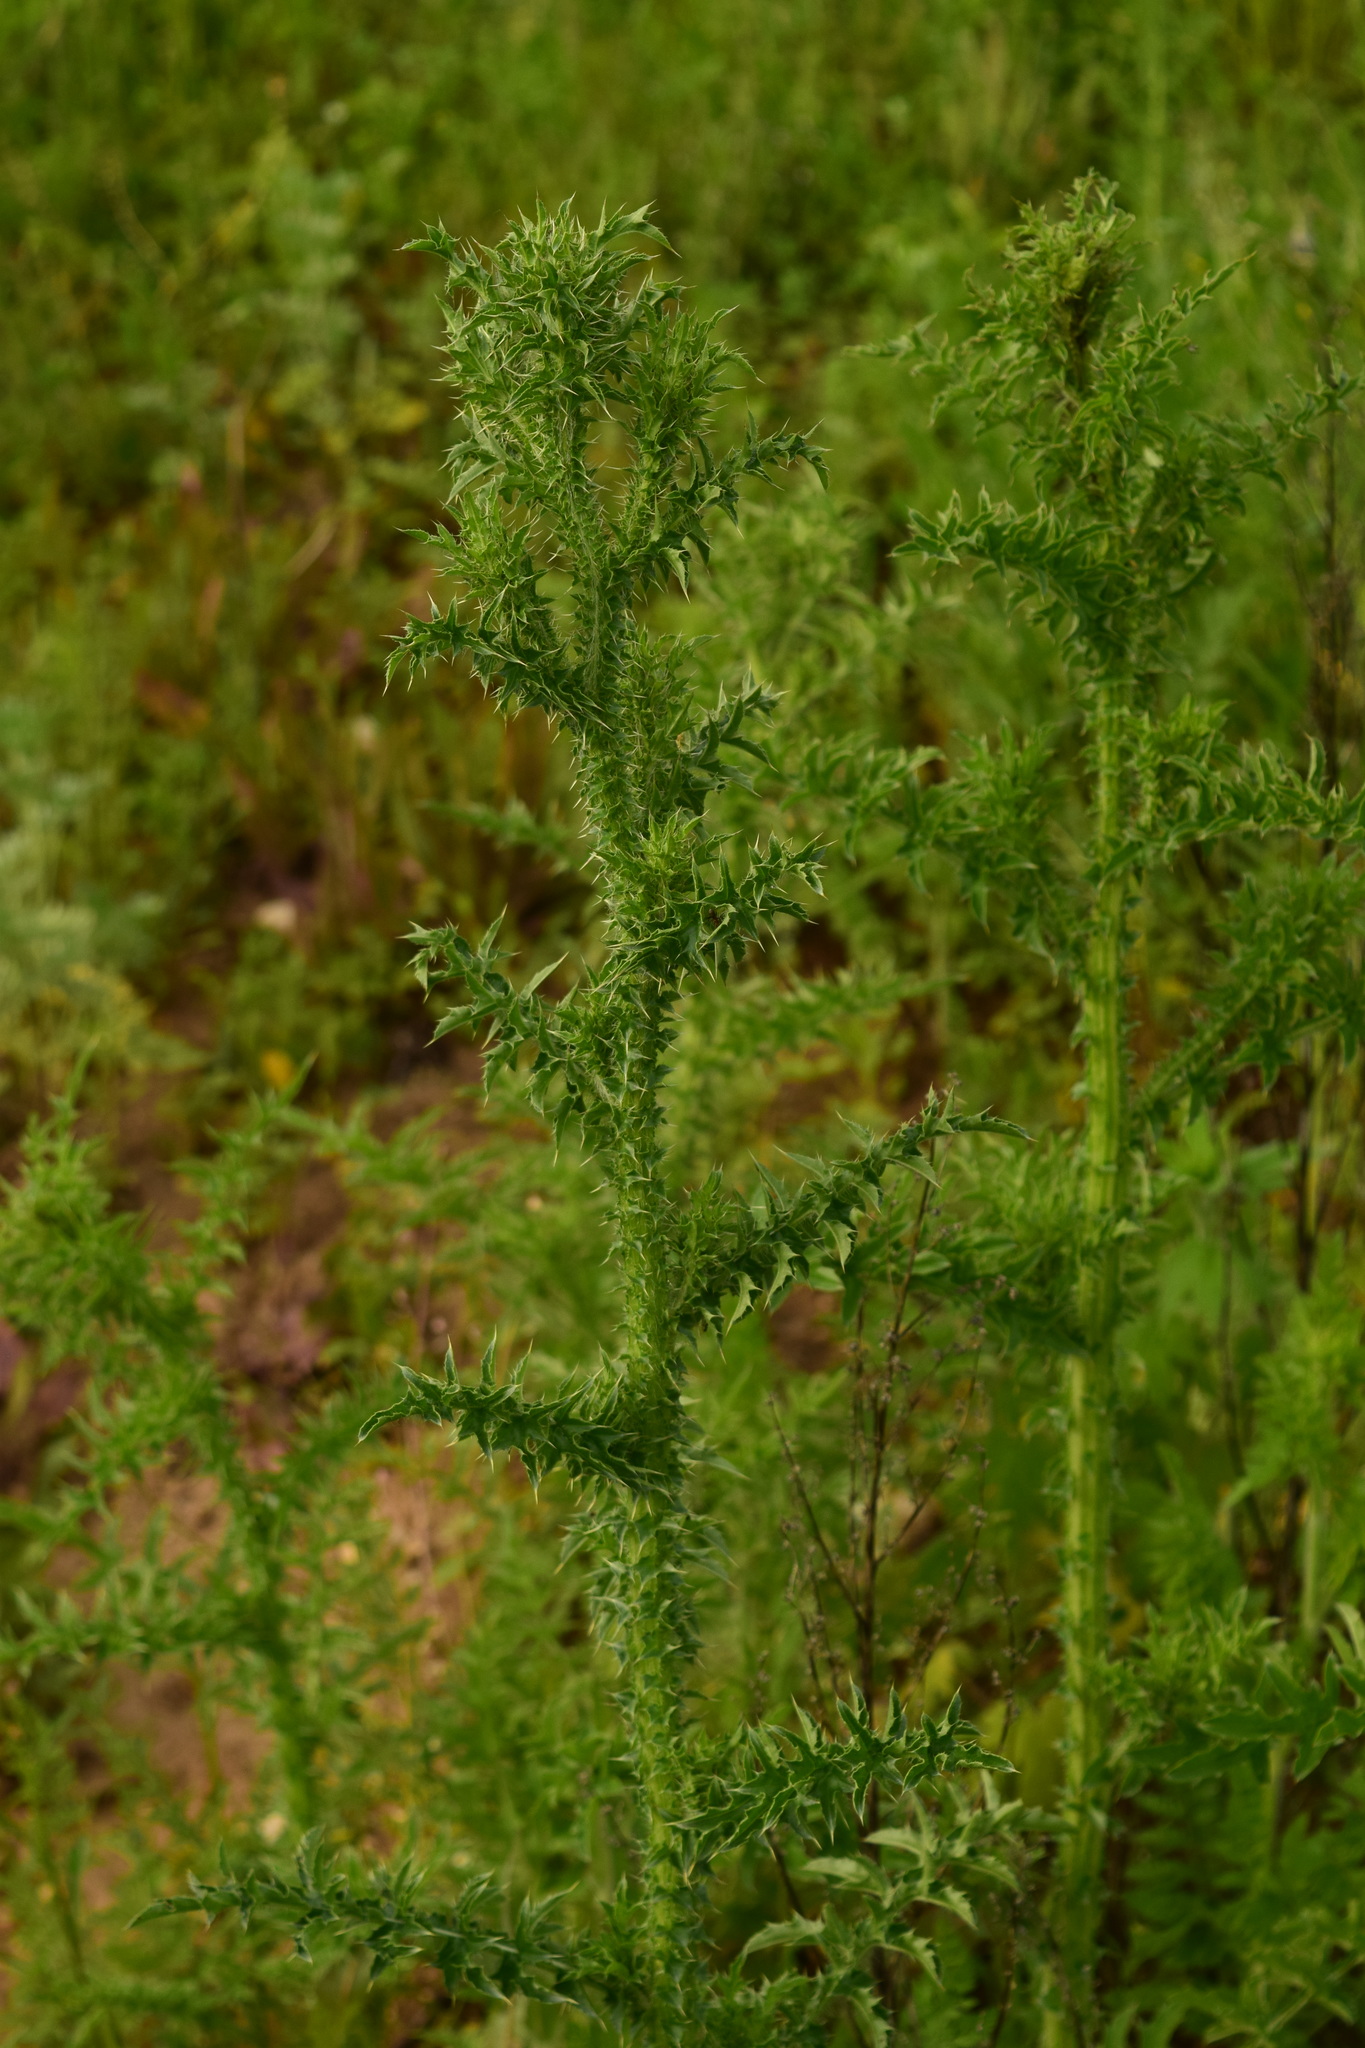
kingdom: Plantae
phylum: Tracheophyta
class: Magnoliopsida
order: Asterales
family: Asteraceae
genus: Carduus
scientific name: Carduus acanthoides
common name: Plumeless thistle
